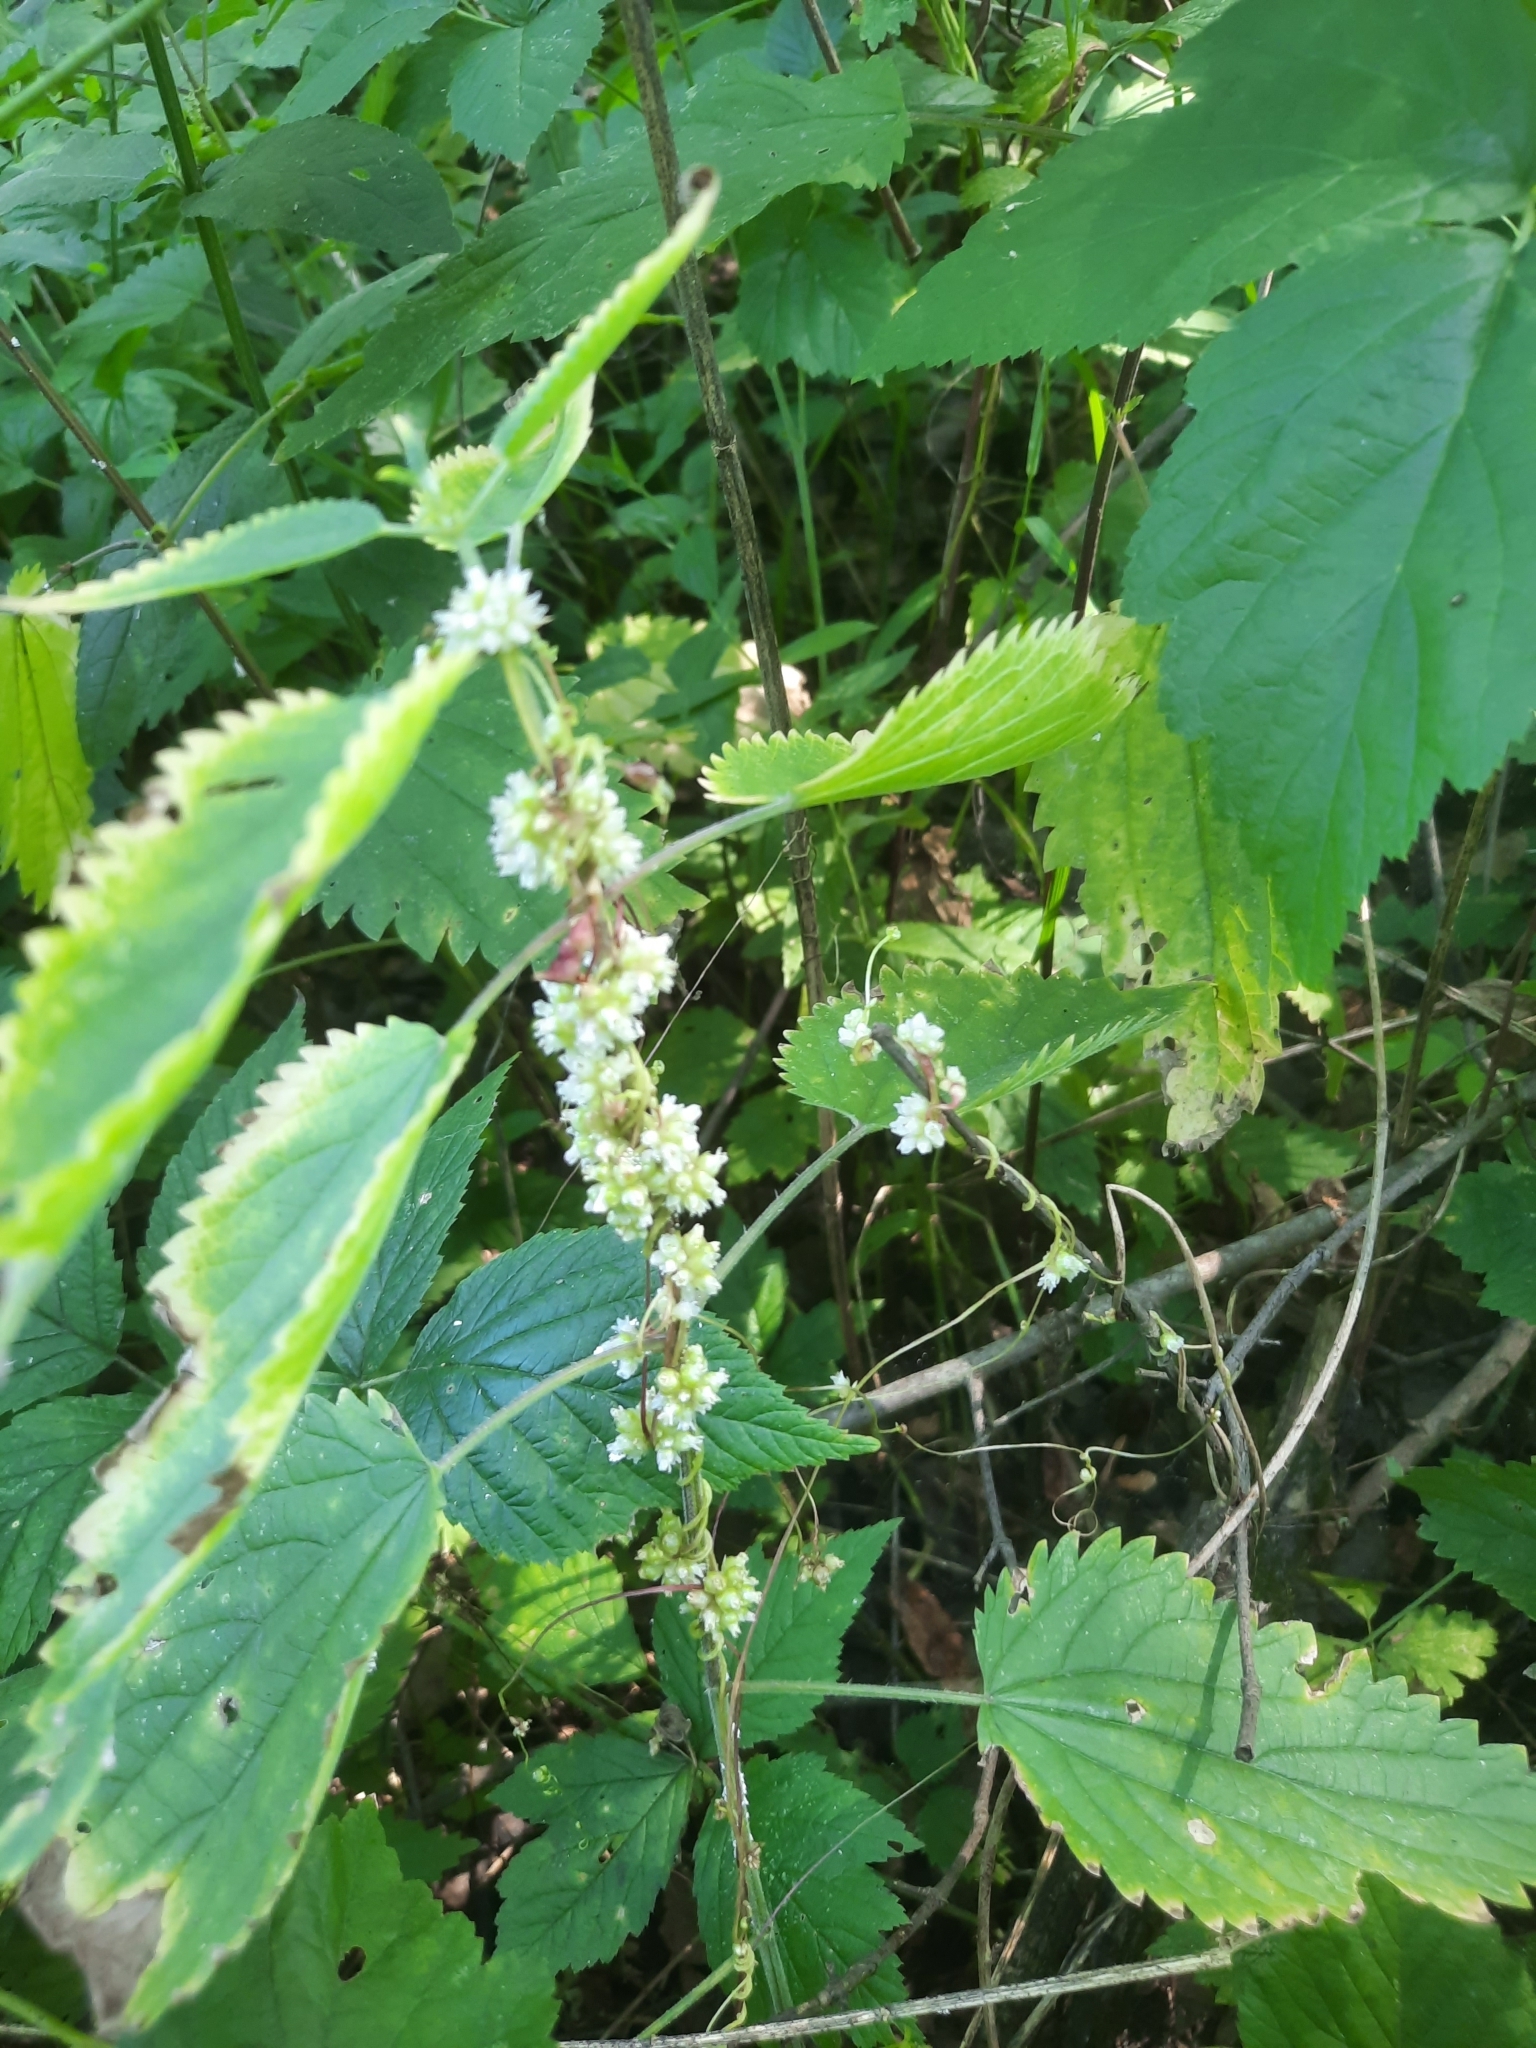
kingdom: Plantae
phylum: Tracheophyta
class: Magnoliopsida
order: Solanales
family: Convolvulaceae
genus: Cuscuta
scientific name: Cuscuta europaea
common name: Greater dodder
